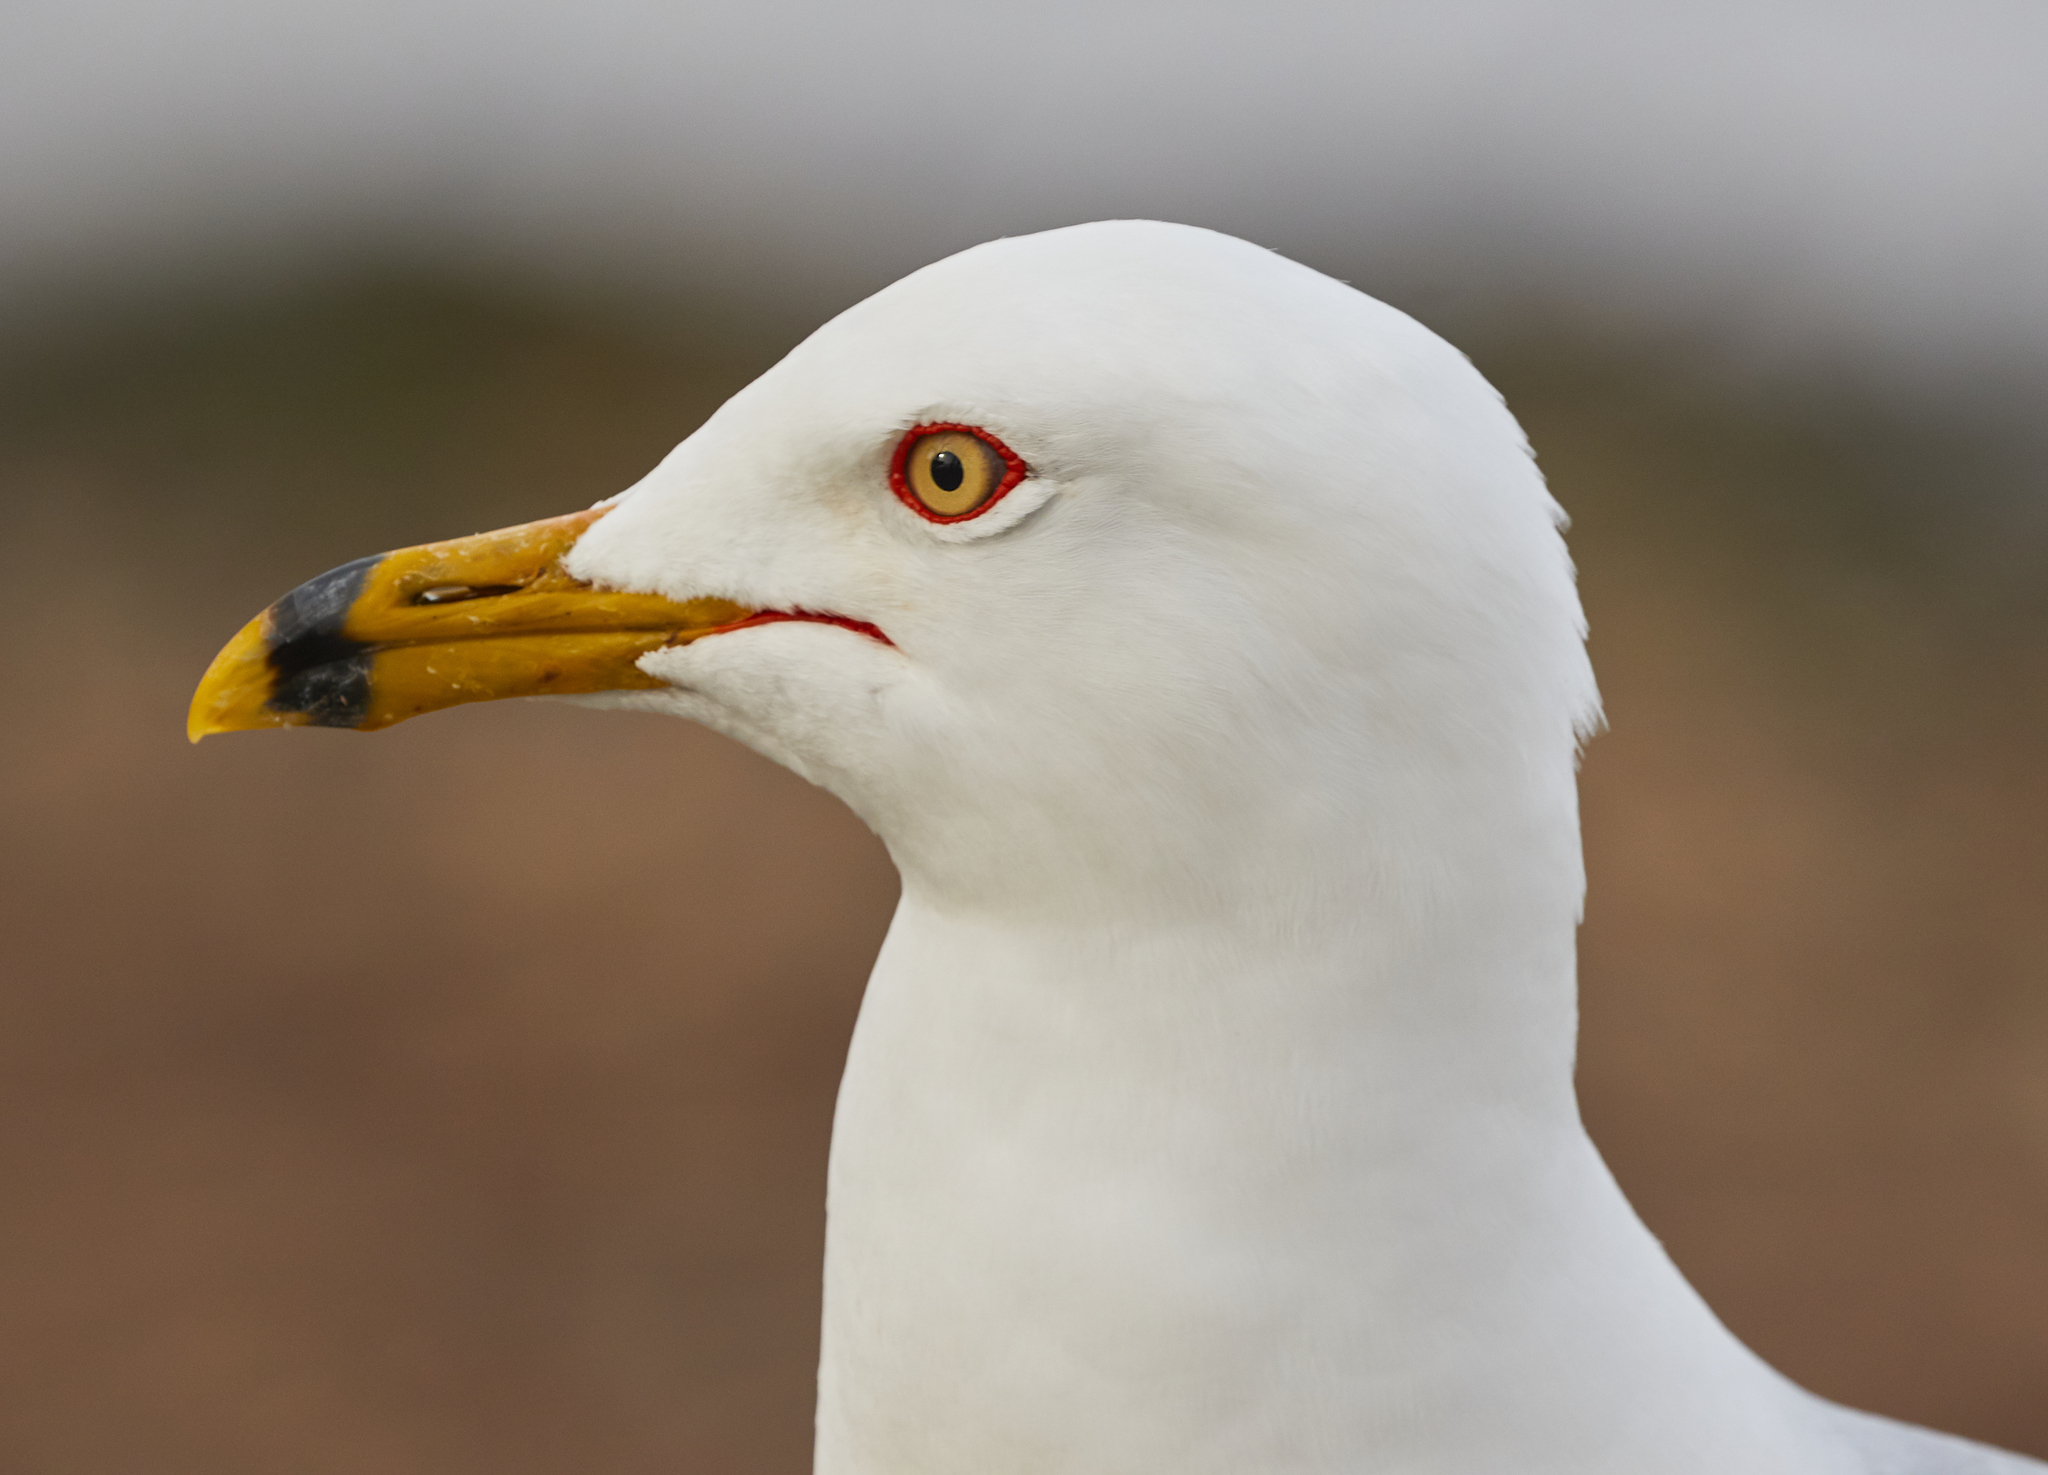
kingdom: Animalia
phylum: Chordata
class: Aves
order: Charadriiformes
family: Laridae
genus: Larus
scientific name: Larus delawarensis
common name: Ring-billed gull
